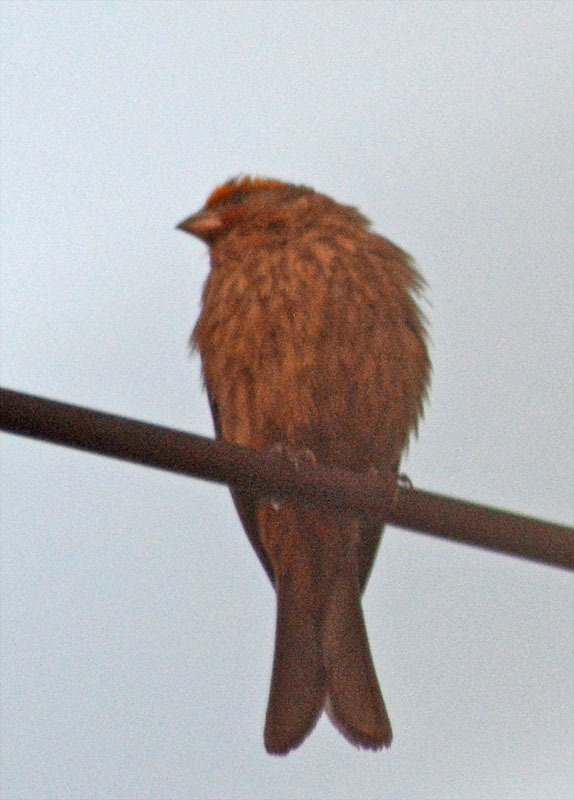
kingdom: Animalia
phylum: Chordata
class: Aves
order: Passeriformes
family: Fringillidae
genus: Haemorhous
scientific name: Haemorhous mexicanus
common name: House finch
